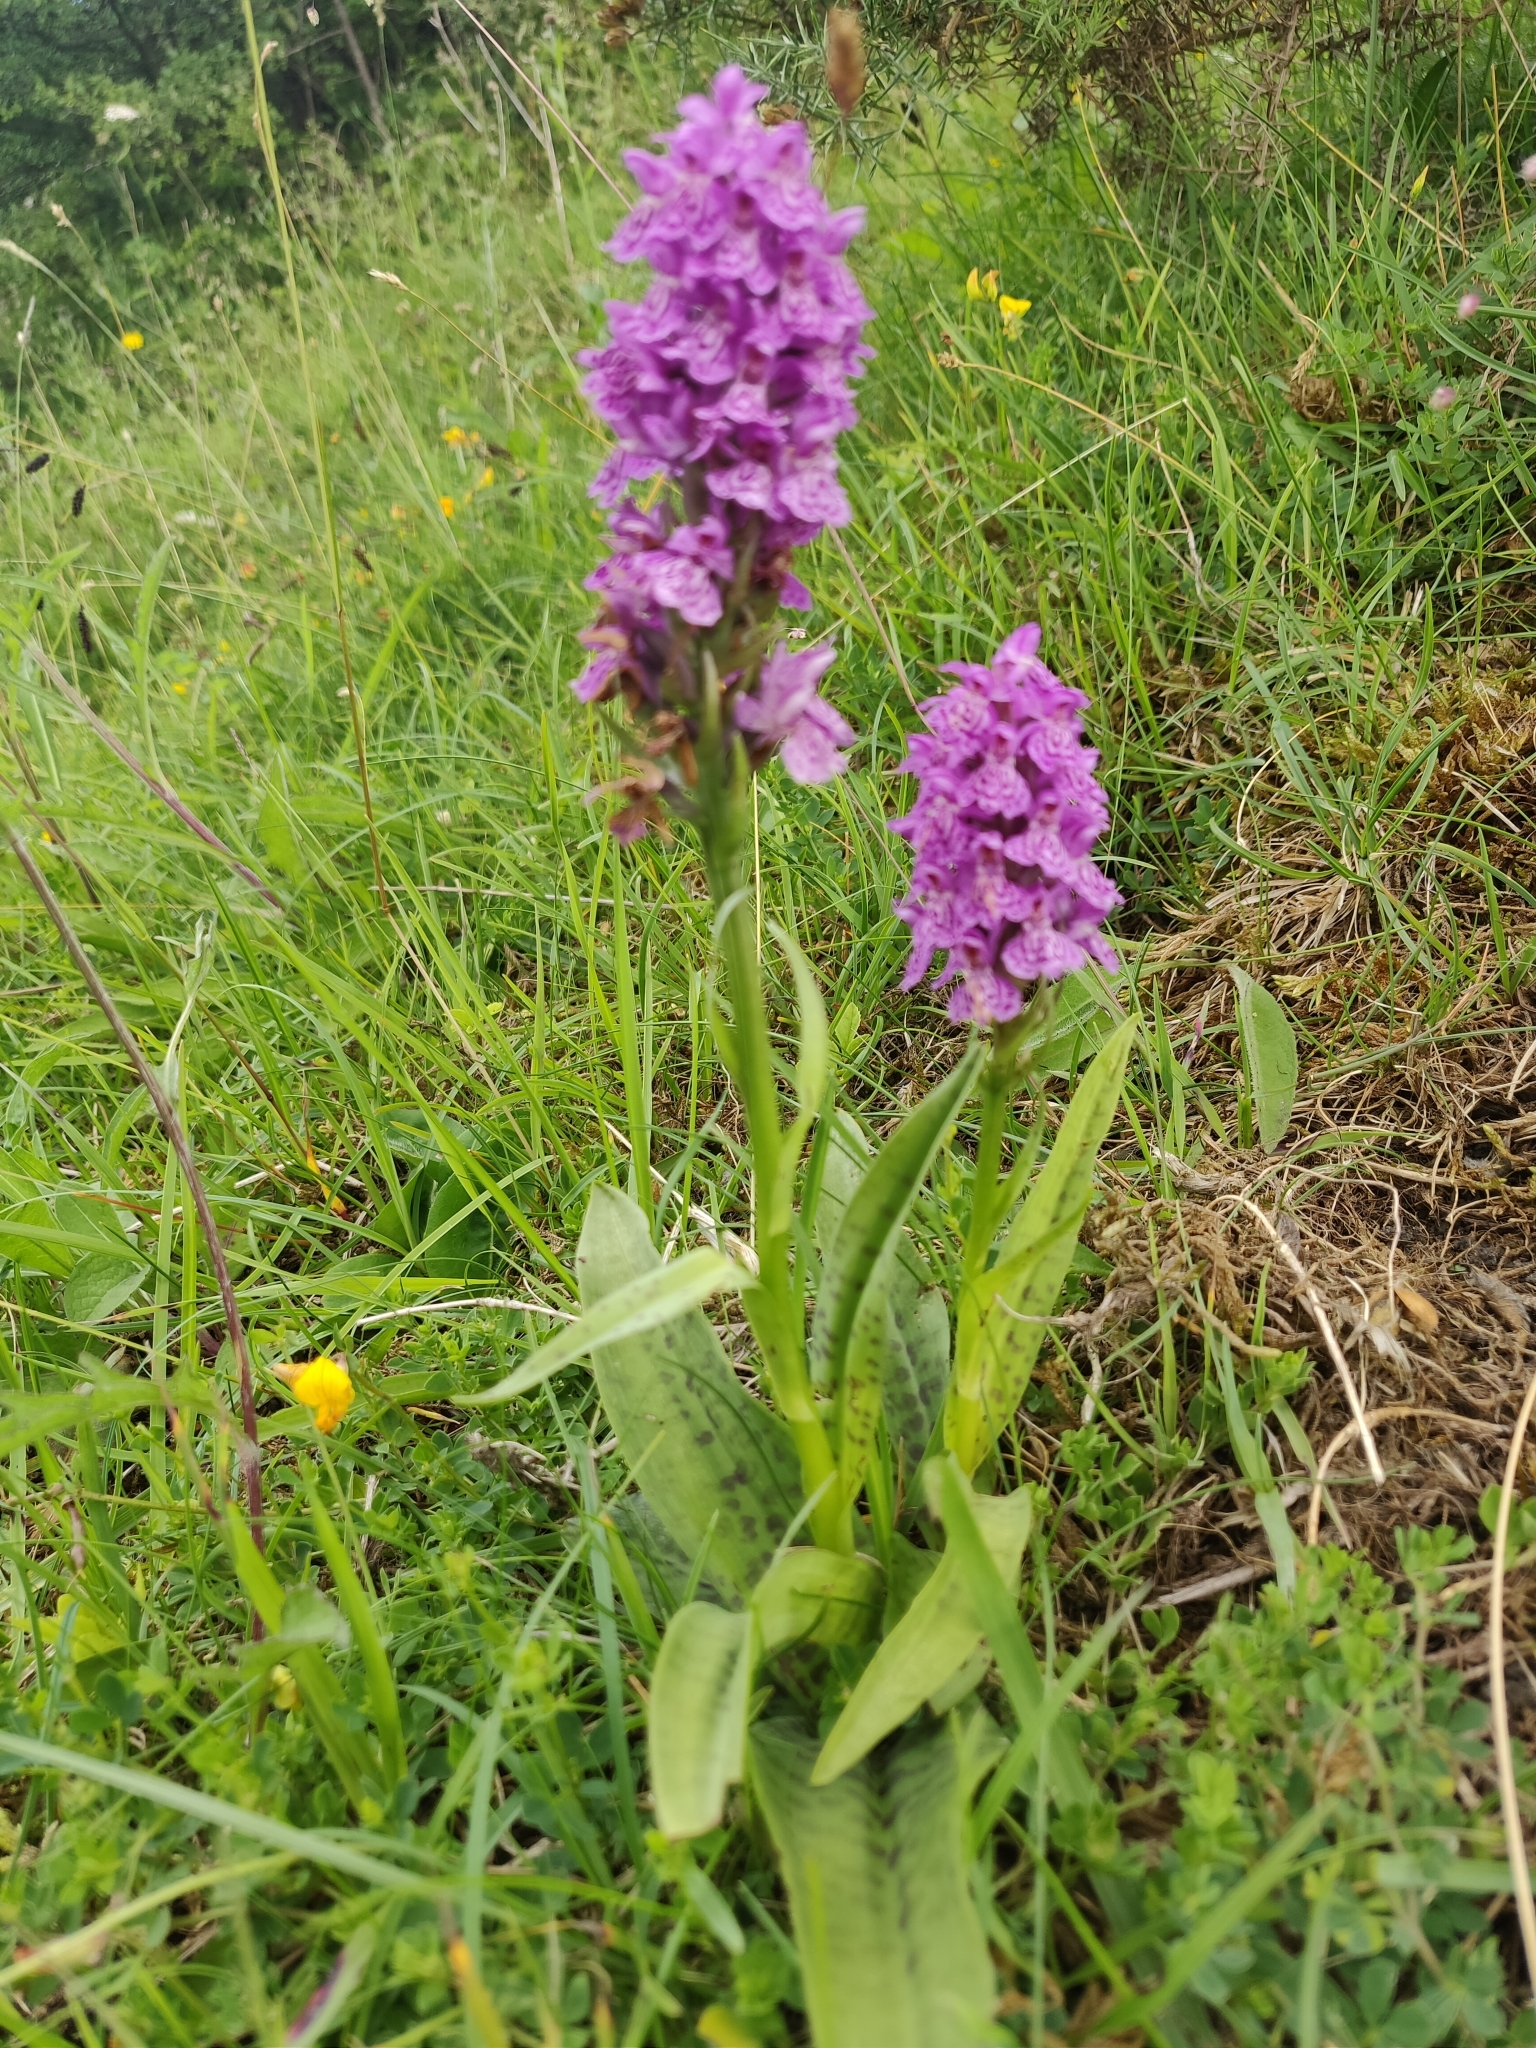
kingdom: Plantae
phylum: Tracheophyta
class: Liliopsida
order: Asparagales
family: Orchidaceae
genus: Dactylorhiza
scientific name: Dactylorhiza maculata
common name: Heath spotted-orchid
